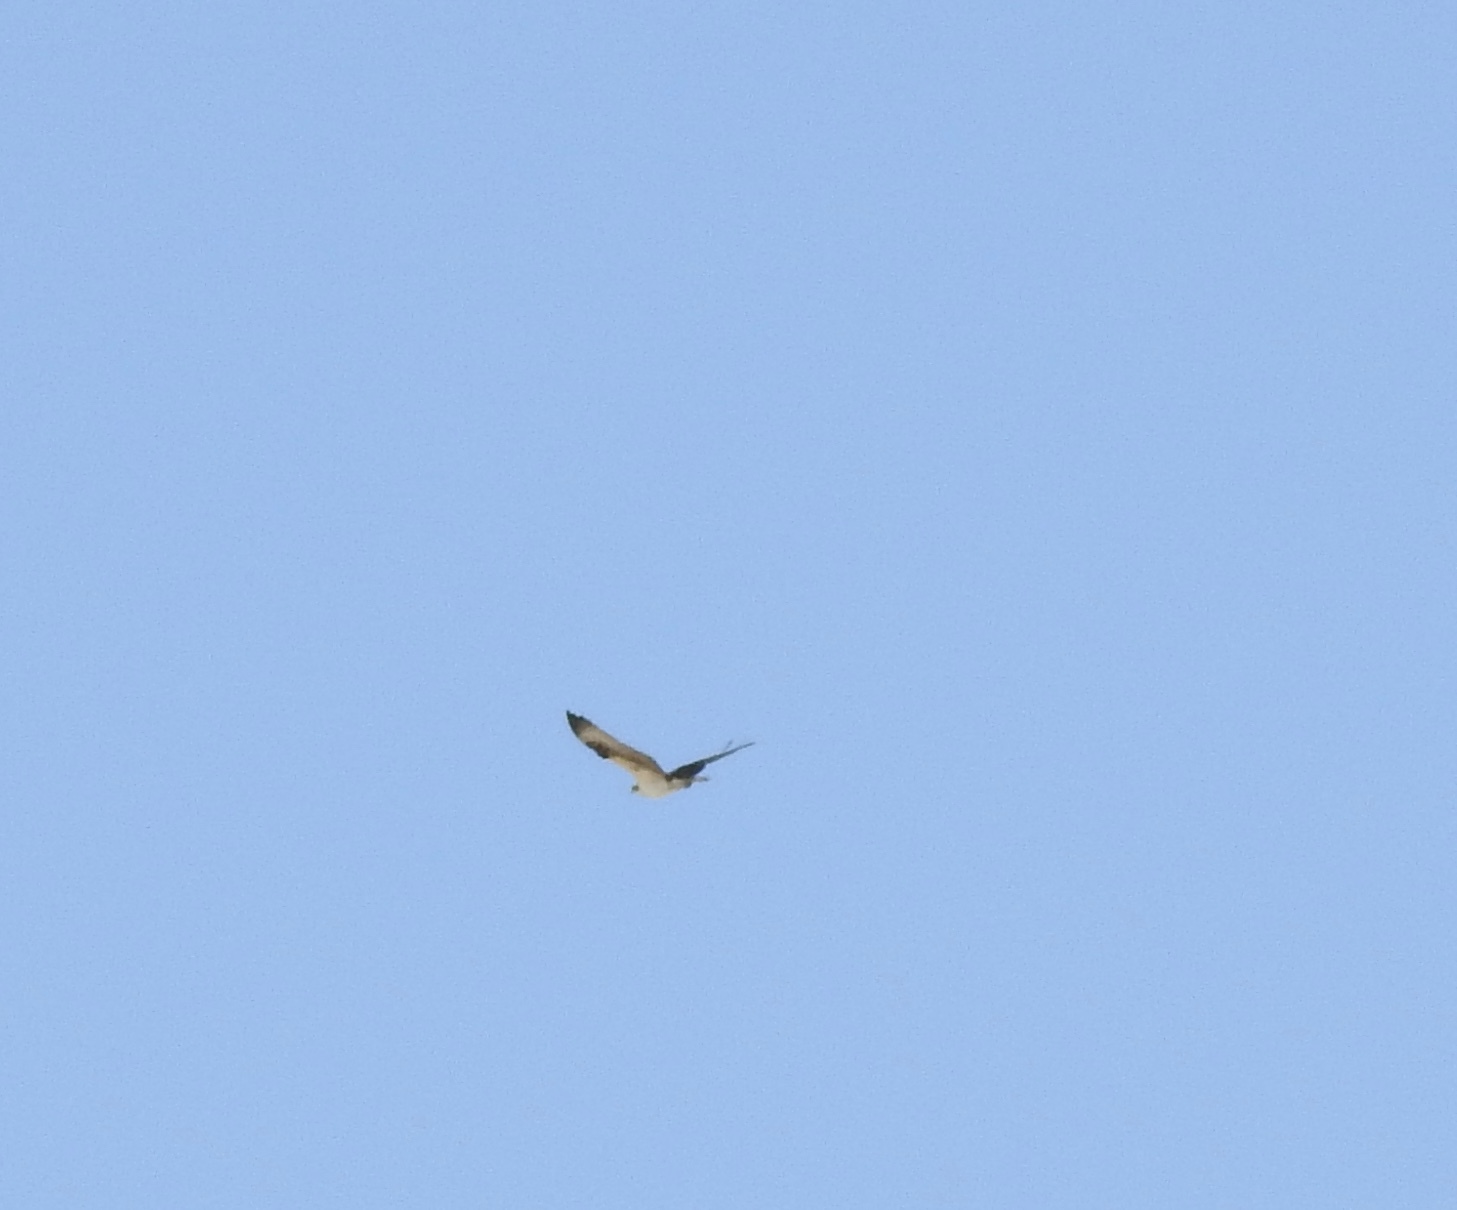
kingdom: Animalia
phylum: Chordata
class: Aves
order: Accipitriformes
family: Pandionidae
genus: Pandion
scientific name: Pandion haliaetus
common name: Osprey
